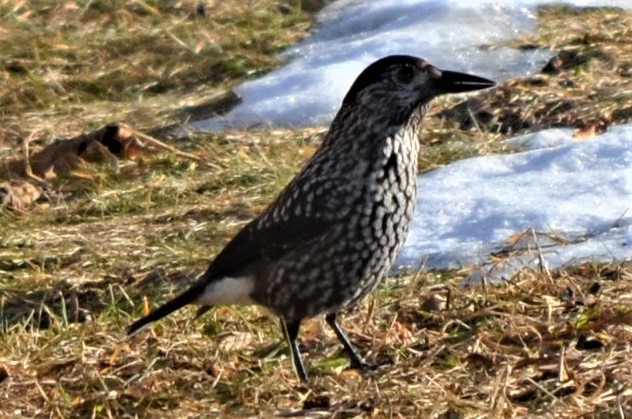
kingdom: Animalia
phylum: Chordata
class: Aves
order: Passeriformes
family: Corvidae
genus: Nucifraga
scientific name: Nucifraga caryocatactes
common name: Spotted nutcracker
